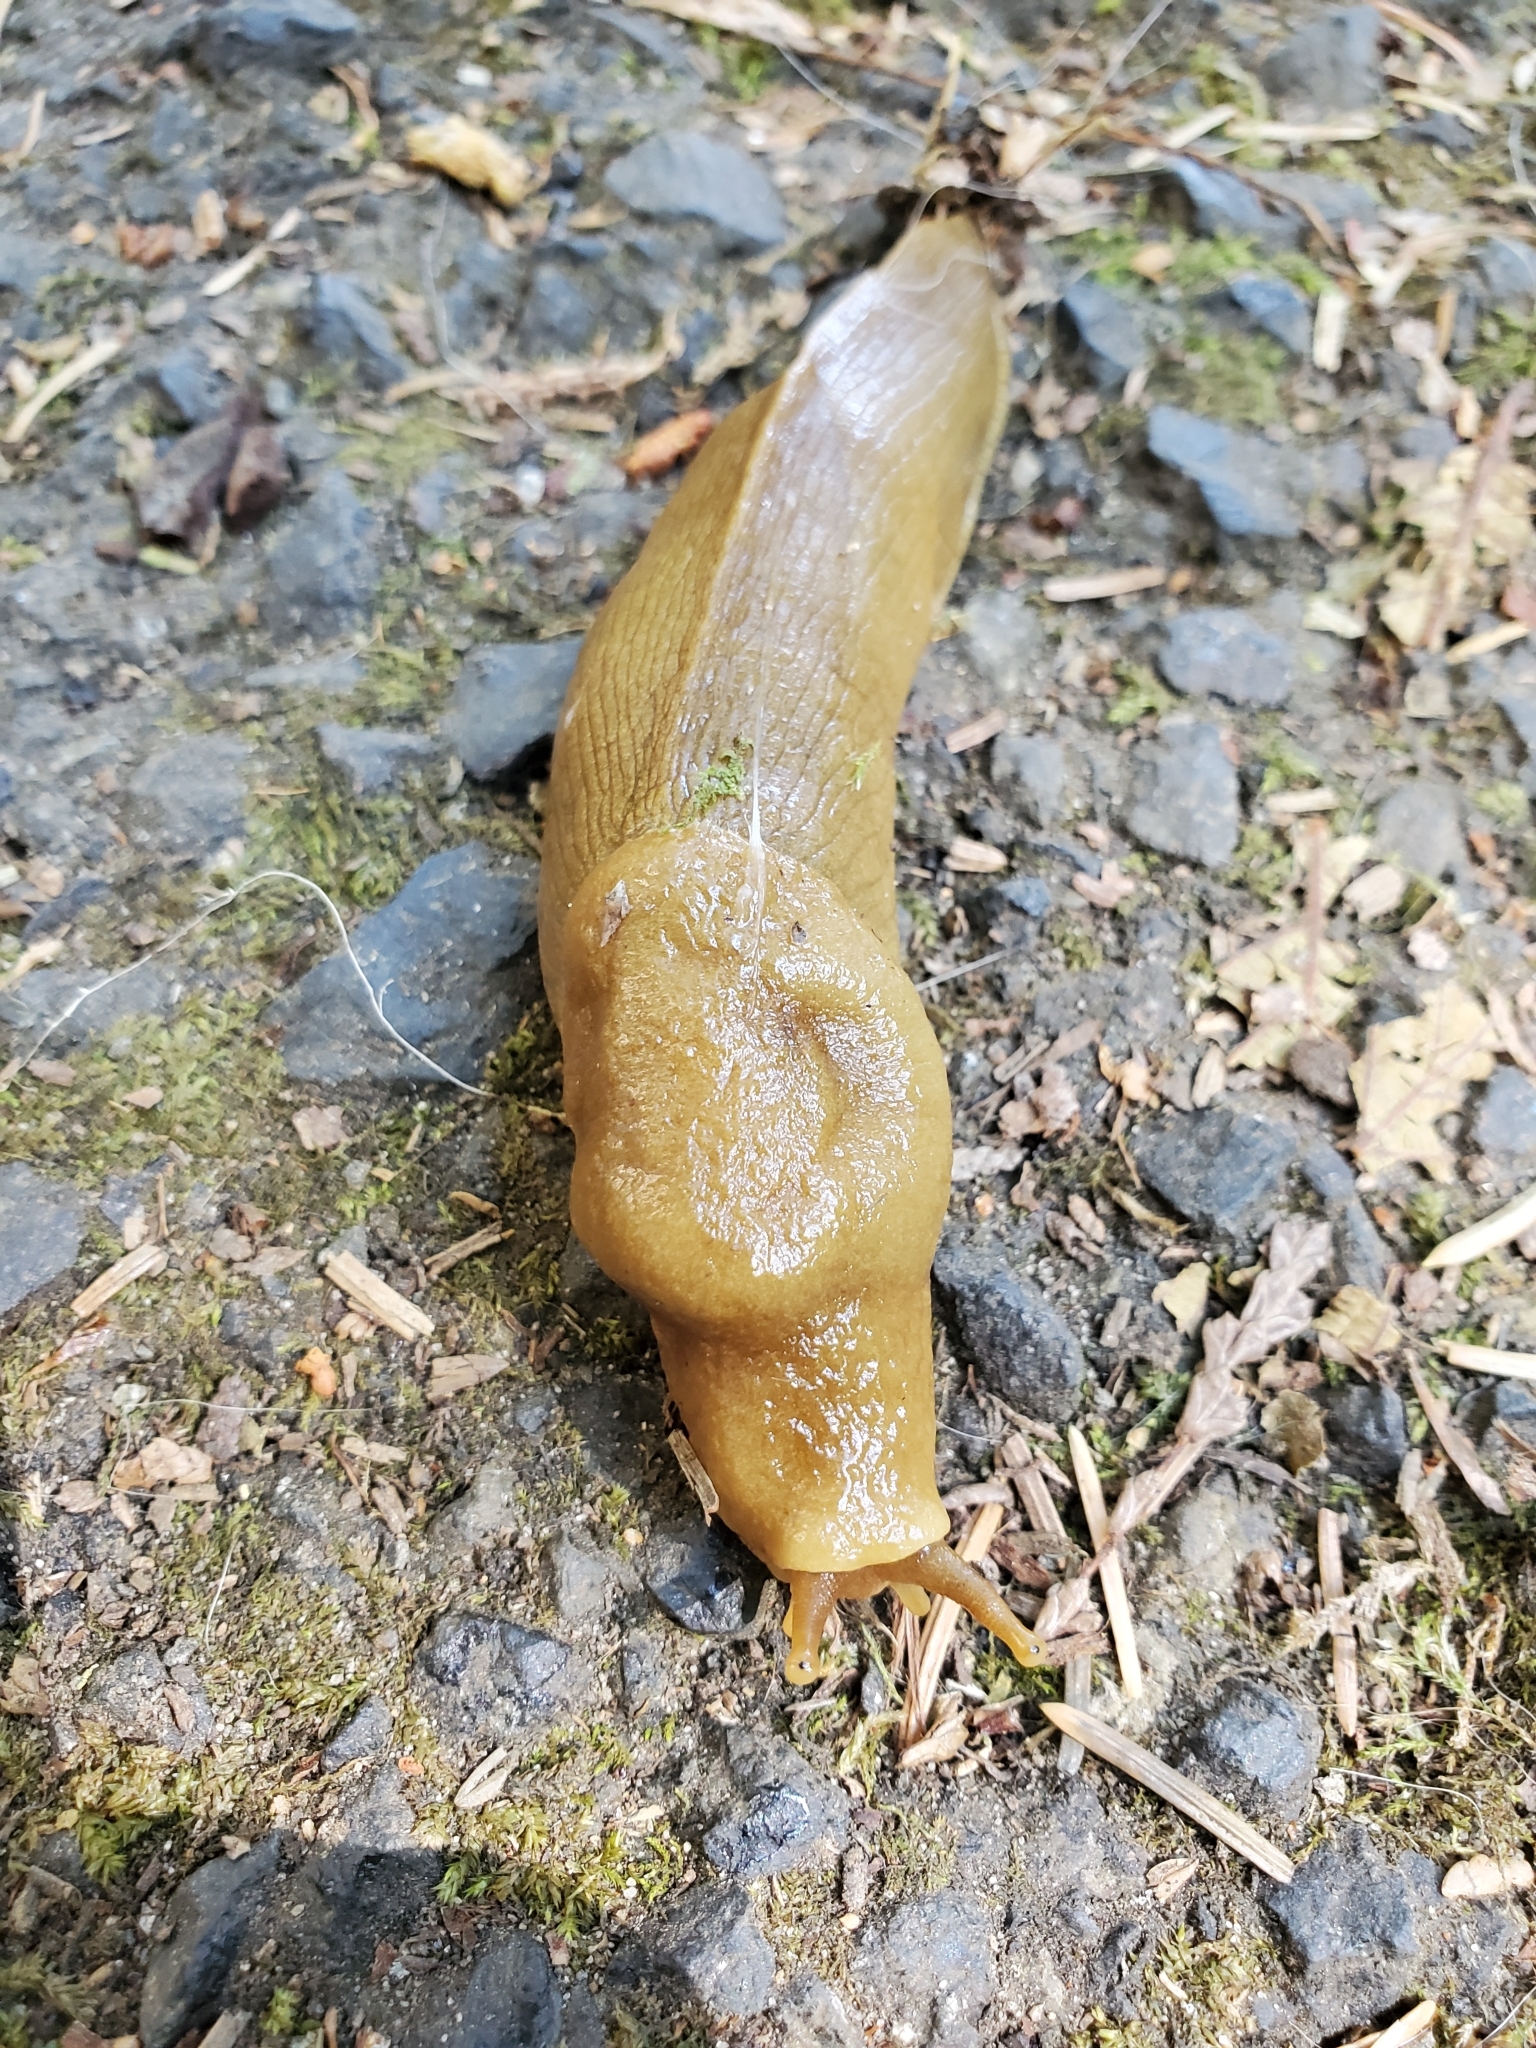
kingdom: Animalia
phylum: Mollusca
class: Gastropoda
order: Stylommatophora
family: Ariolimacidae
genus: Ariolimax
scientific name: Ariolimax columbianus
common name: Pacific banana slug
